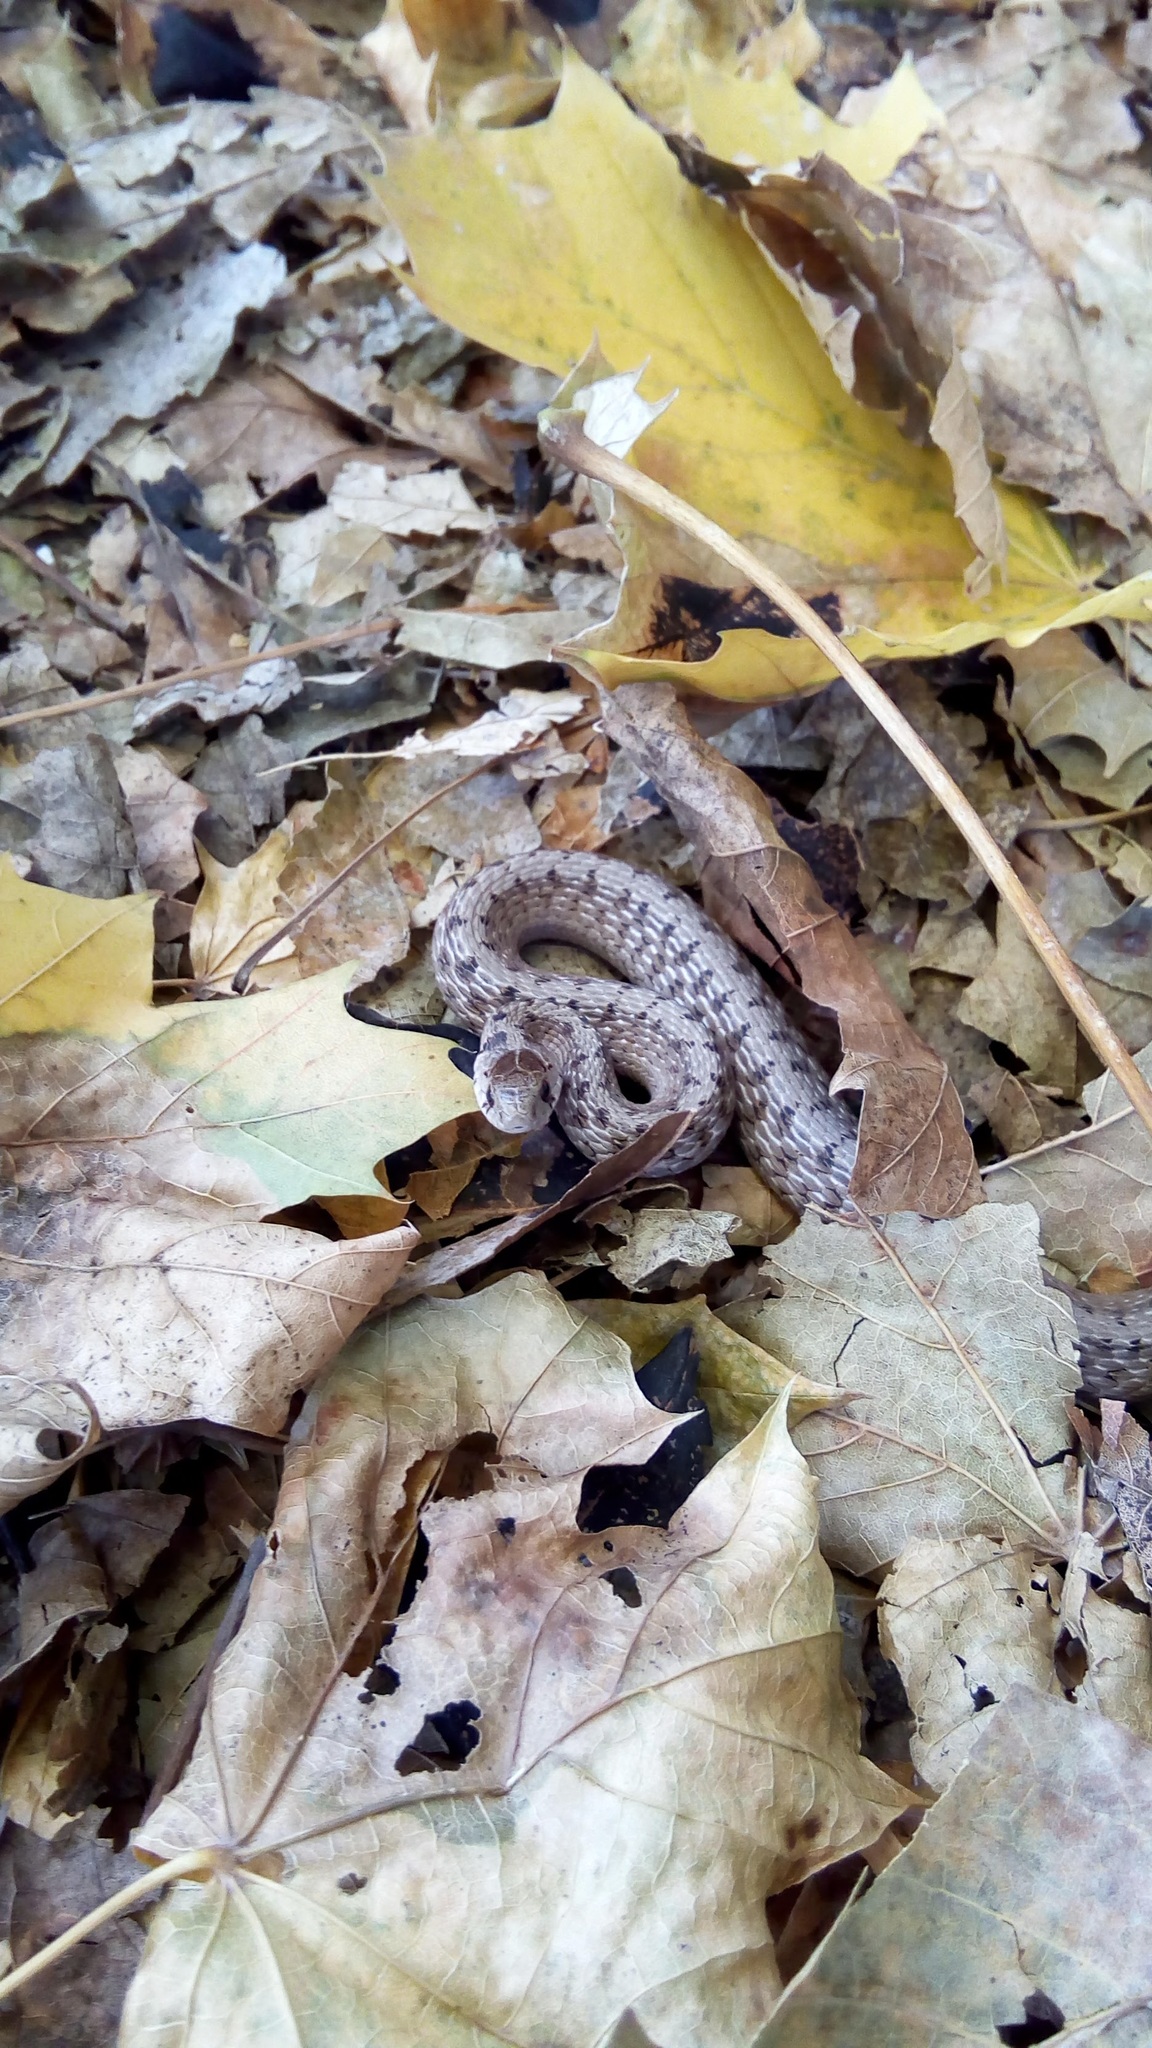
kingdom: Animalia
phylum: Chordata
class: Squamata
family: Colubridae
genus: Storeria
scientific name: Storeria dekayi
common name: (dekay’s) brown snake
